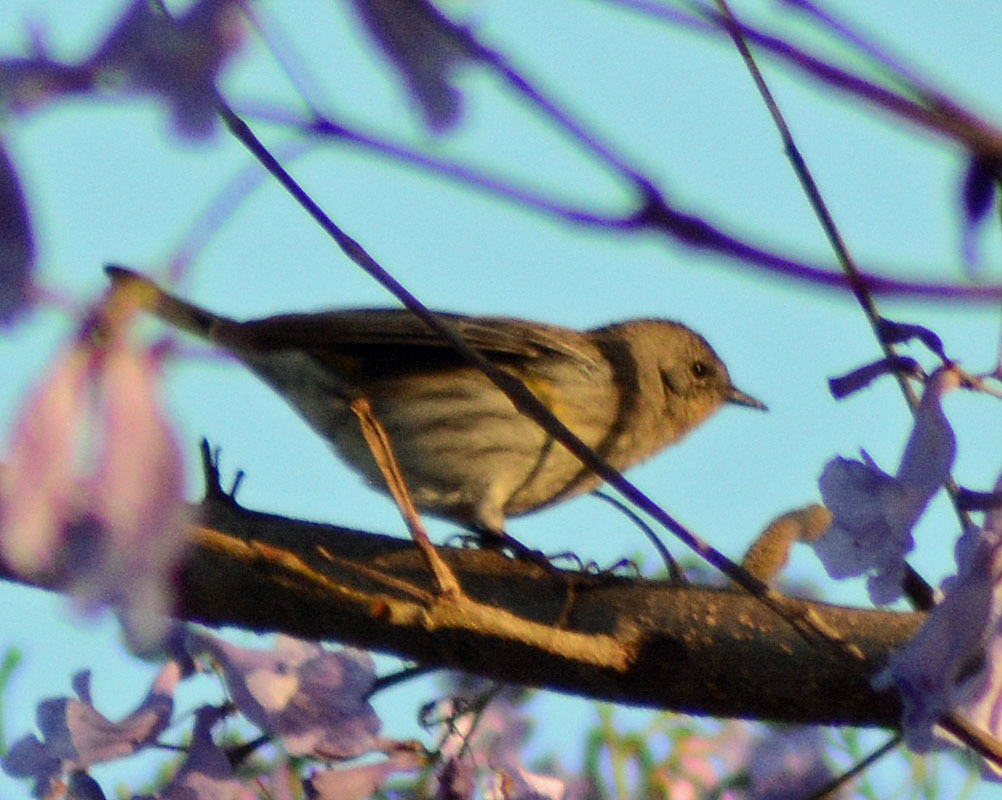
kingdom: Animalia
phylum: Chordata
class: Aves
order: Passeriformes
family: Parulidae
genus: Setophaga
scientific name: Setophaga coronata
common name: Myrtle warbler
